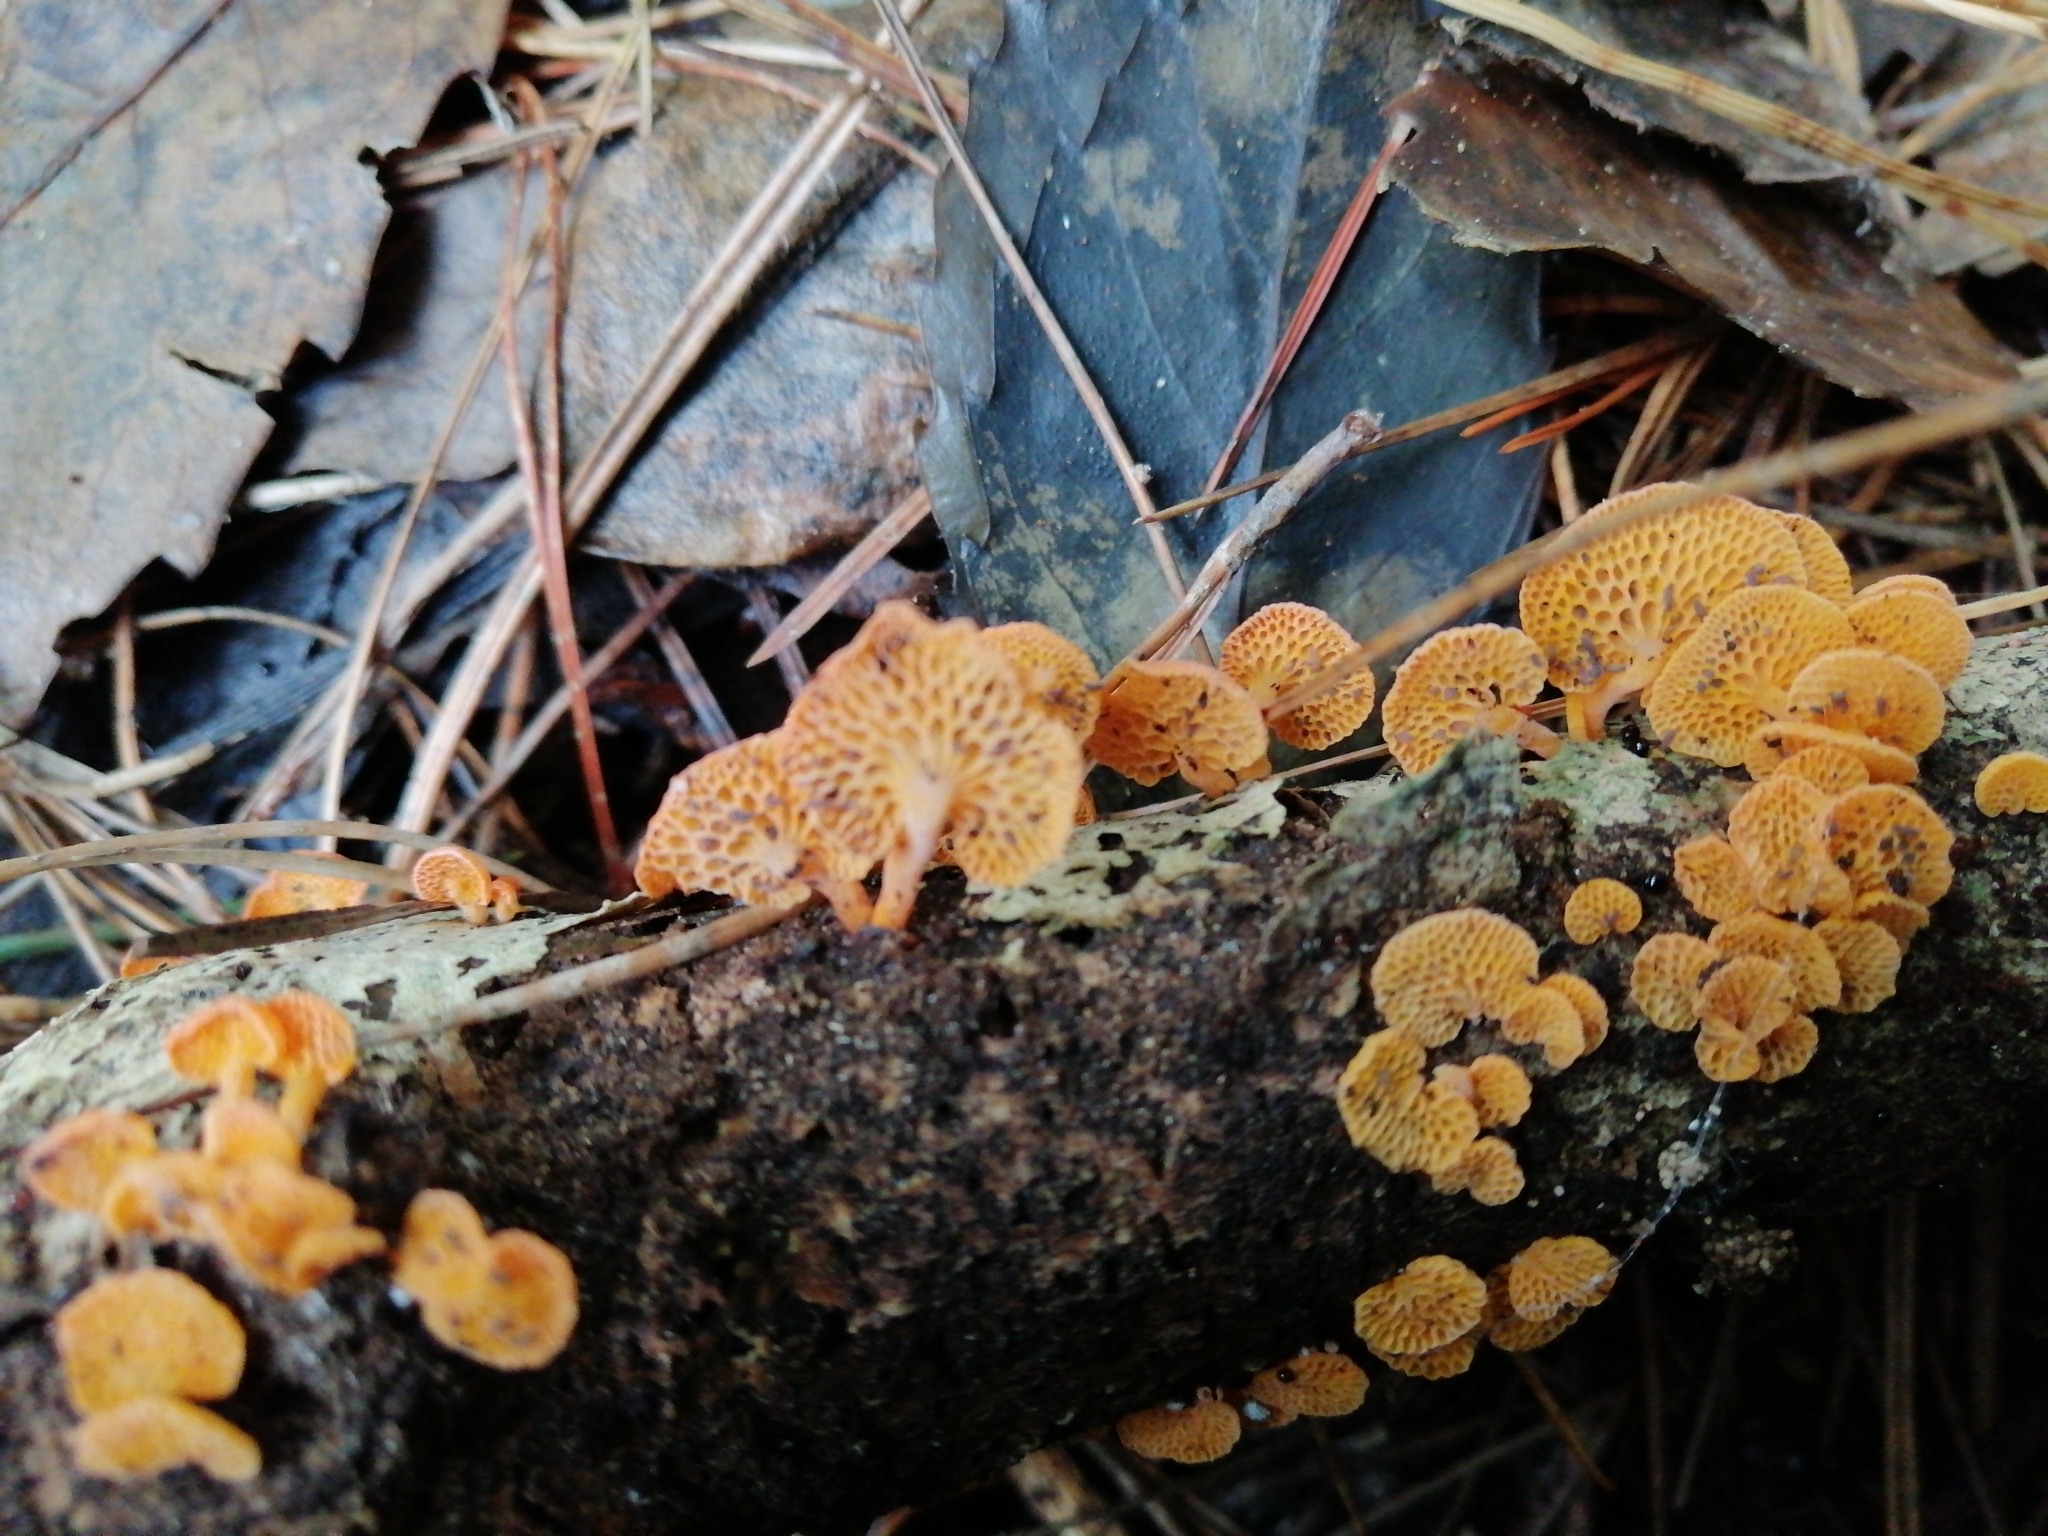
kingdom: Fungi
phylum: Basidiomycota
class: Agaricomycetes
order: Agaricales
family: Mycenaceae
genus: Favolaschia
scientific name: Favolaschia claudopus
